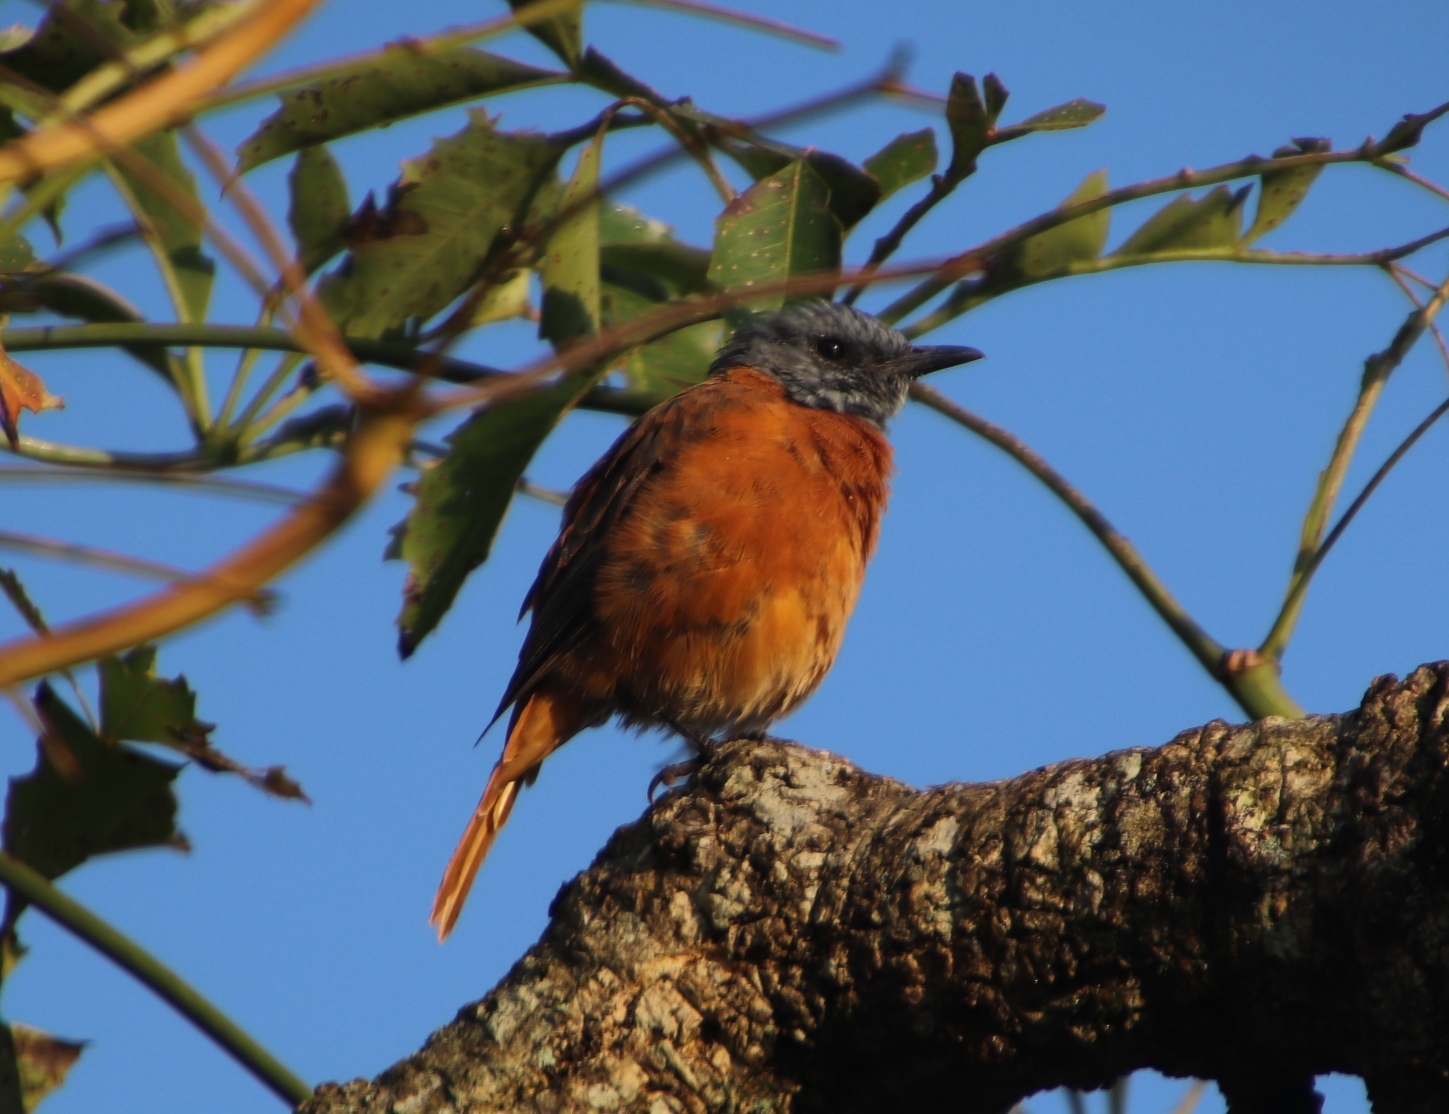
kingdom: Animalia
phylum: Chordata
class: Aves
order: Passeriformes
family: Muscicapidae
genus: Monticola
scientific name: Monticola rupestris
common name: Cape rock thrush
